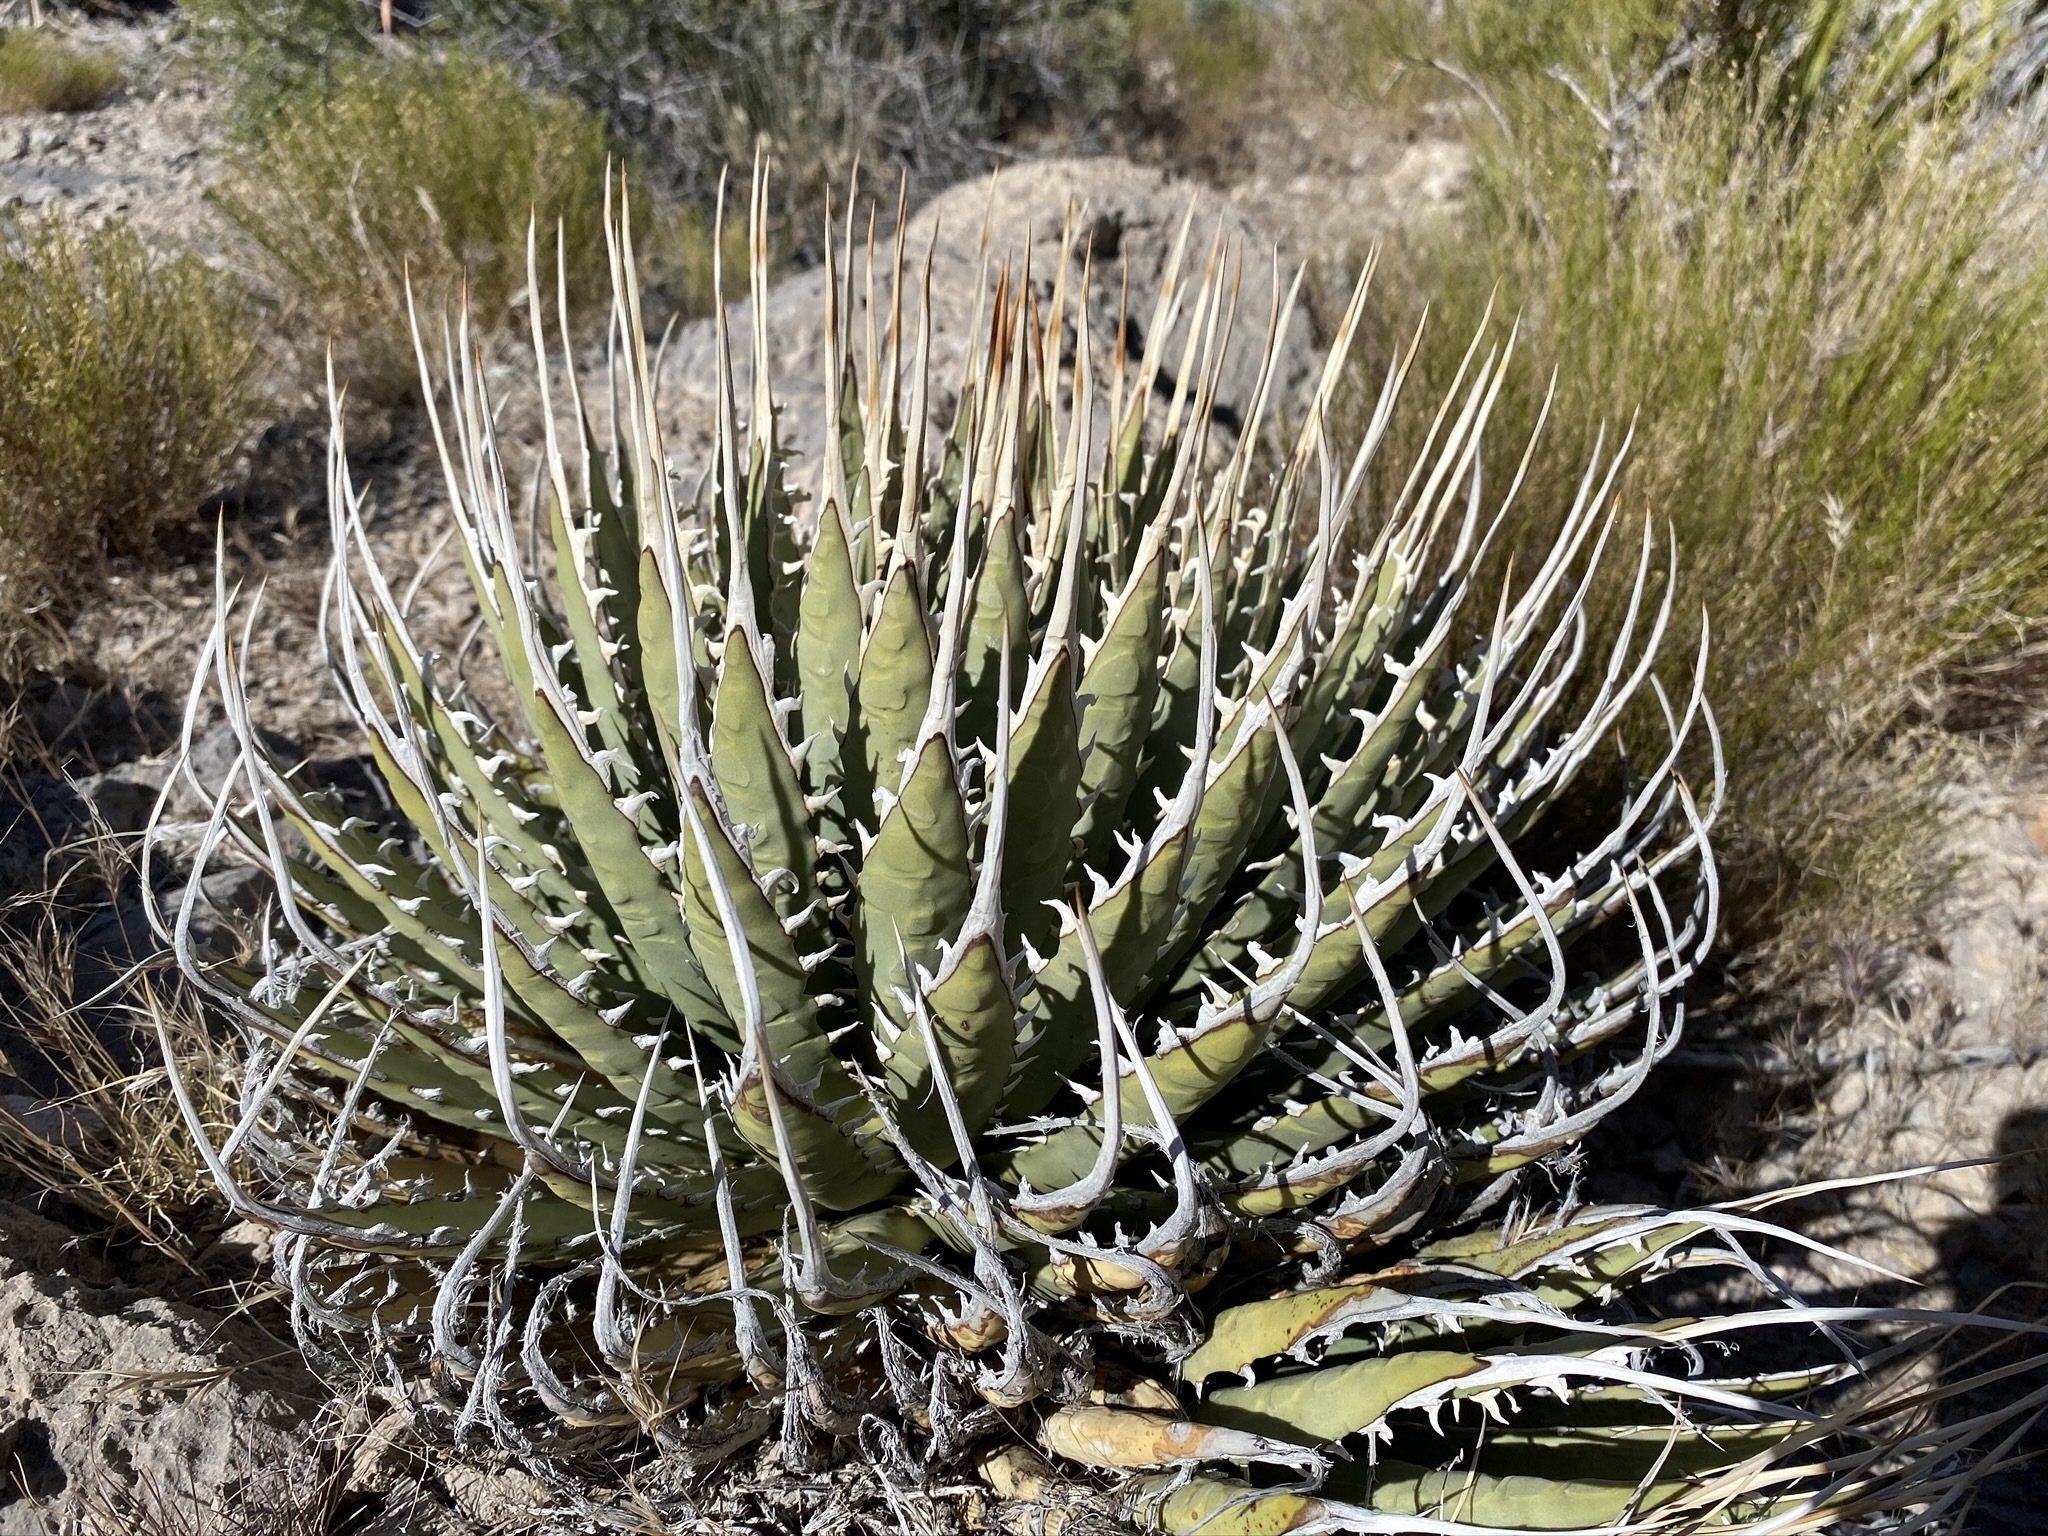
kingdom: Plantae
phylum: Tracheophyta
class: Liliopsida
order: Asparagales
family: Asparagaceae
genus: Agave
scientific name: Agave utahensis
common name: Utah agave
